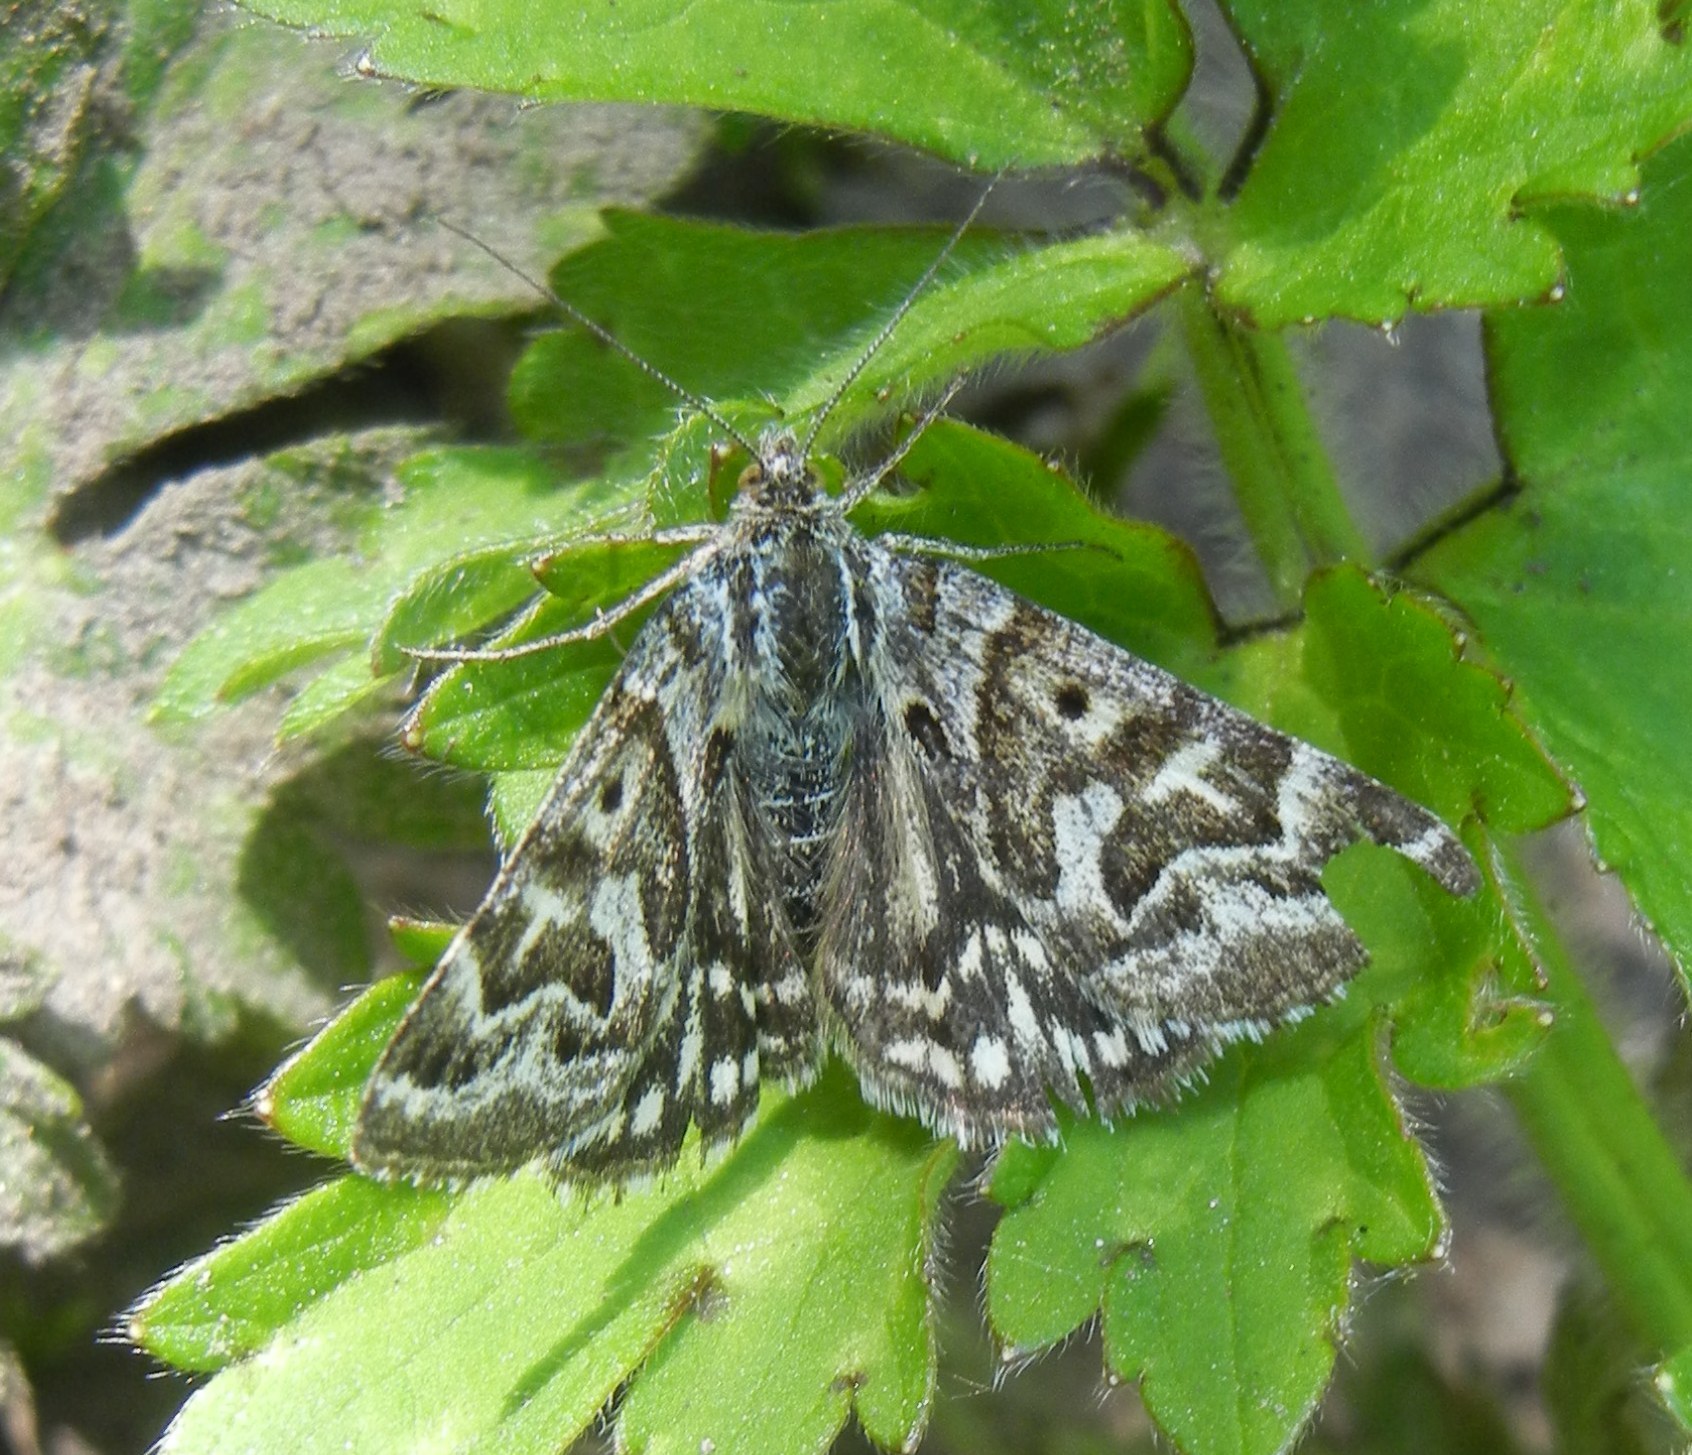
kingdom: Animalia
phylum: Arthropoda
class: Insecta
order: Lepidoptera
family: Erebidae
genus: Callistege
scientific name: Callistege mi
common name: Mother shipton
